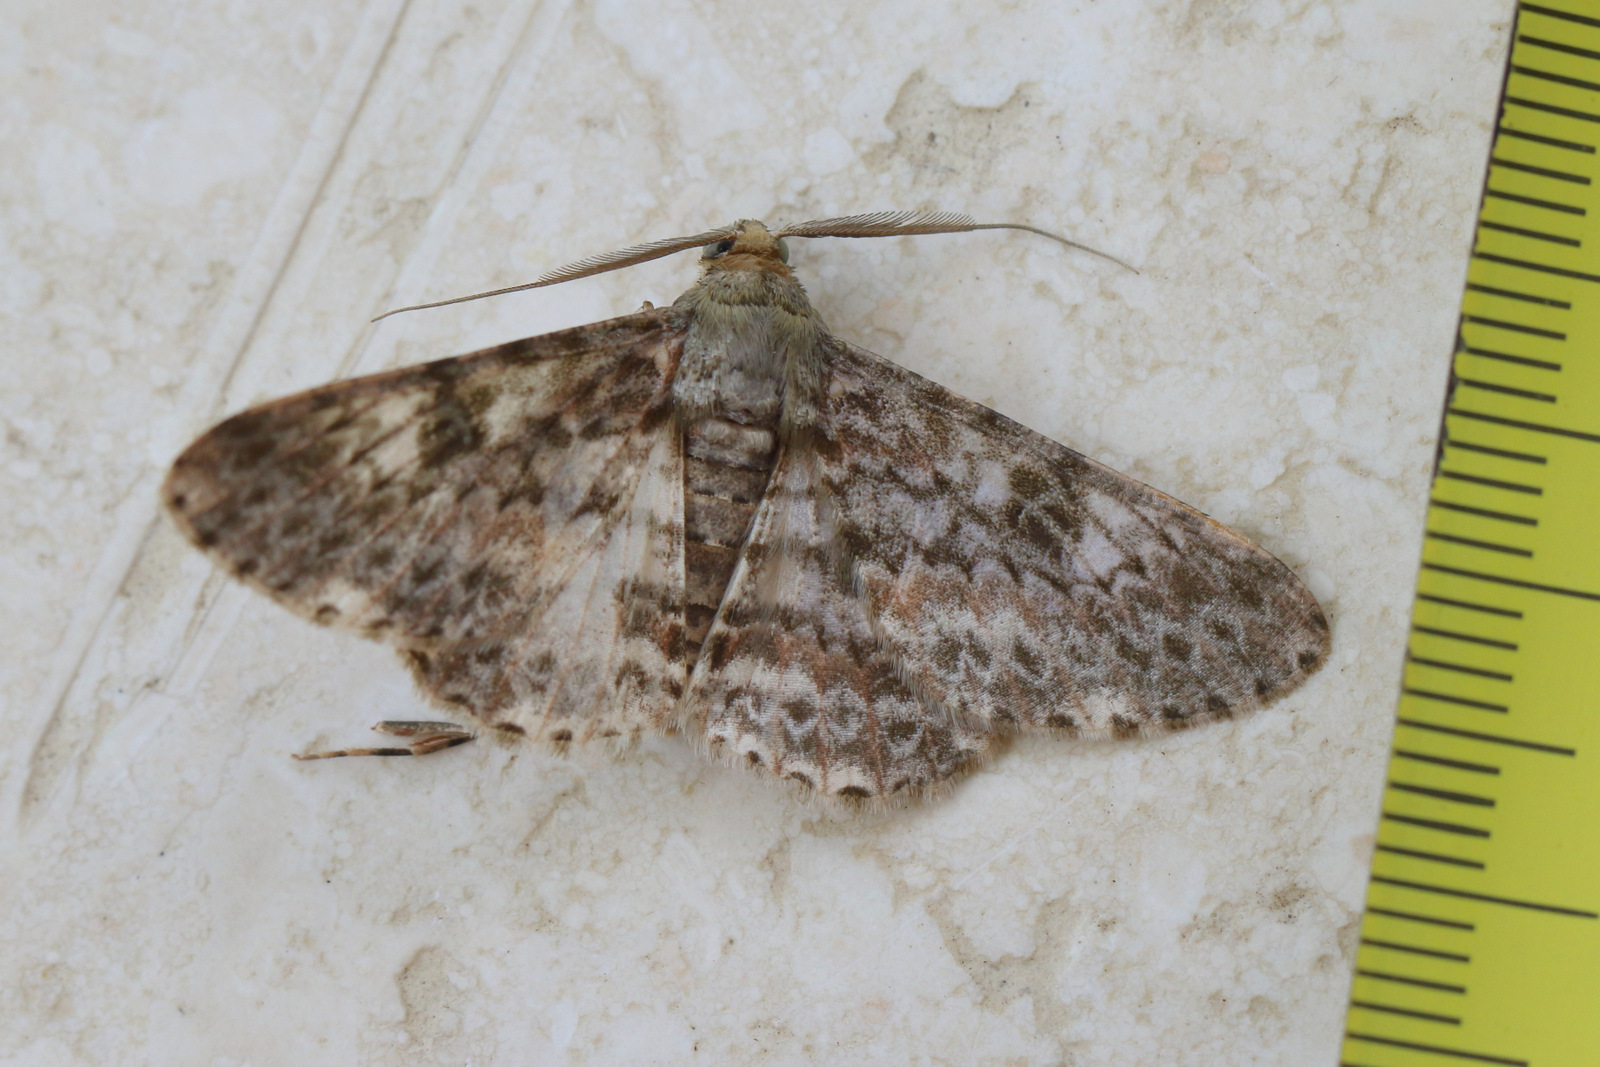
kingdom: Animalia
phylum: Arthropoda
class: Insecta
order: Lepidoptera
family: Geometridae
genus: Cleora
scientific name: Cleora sabulata
